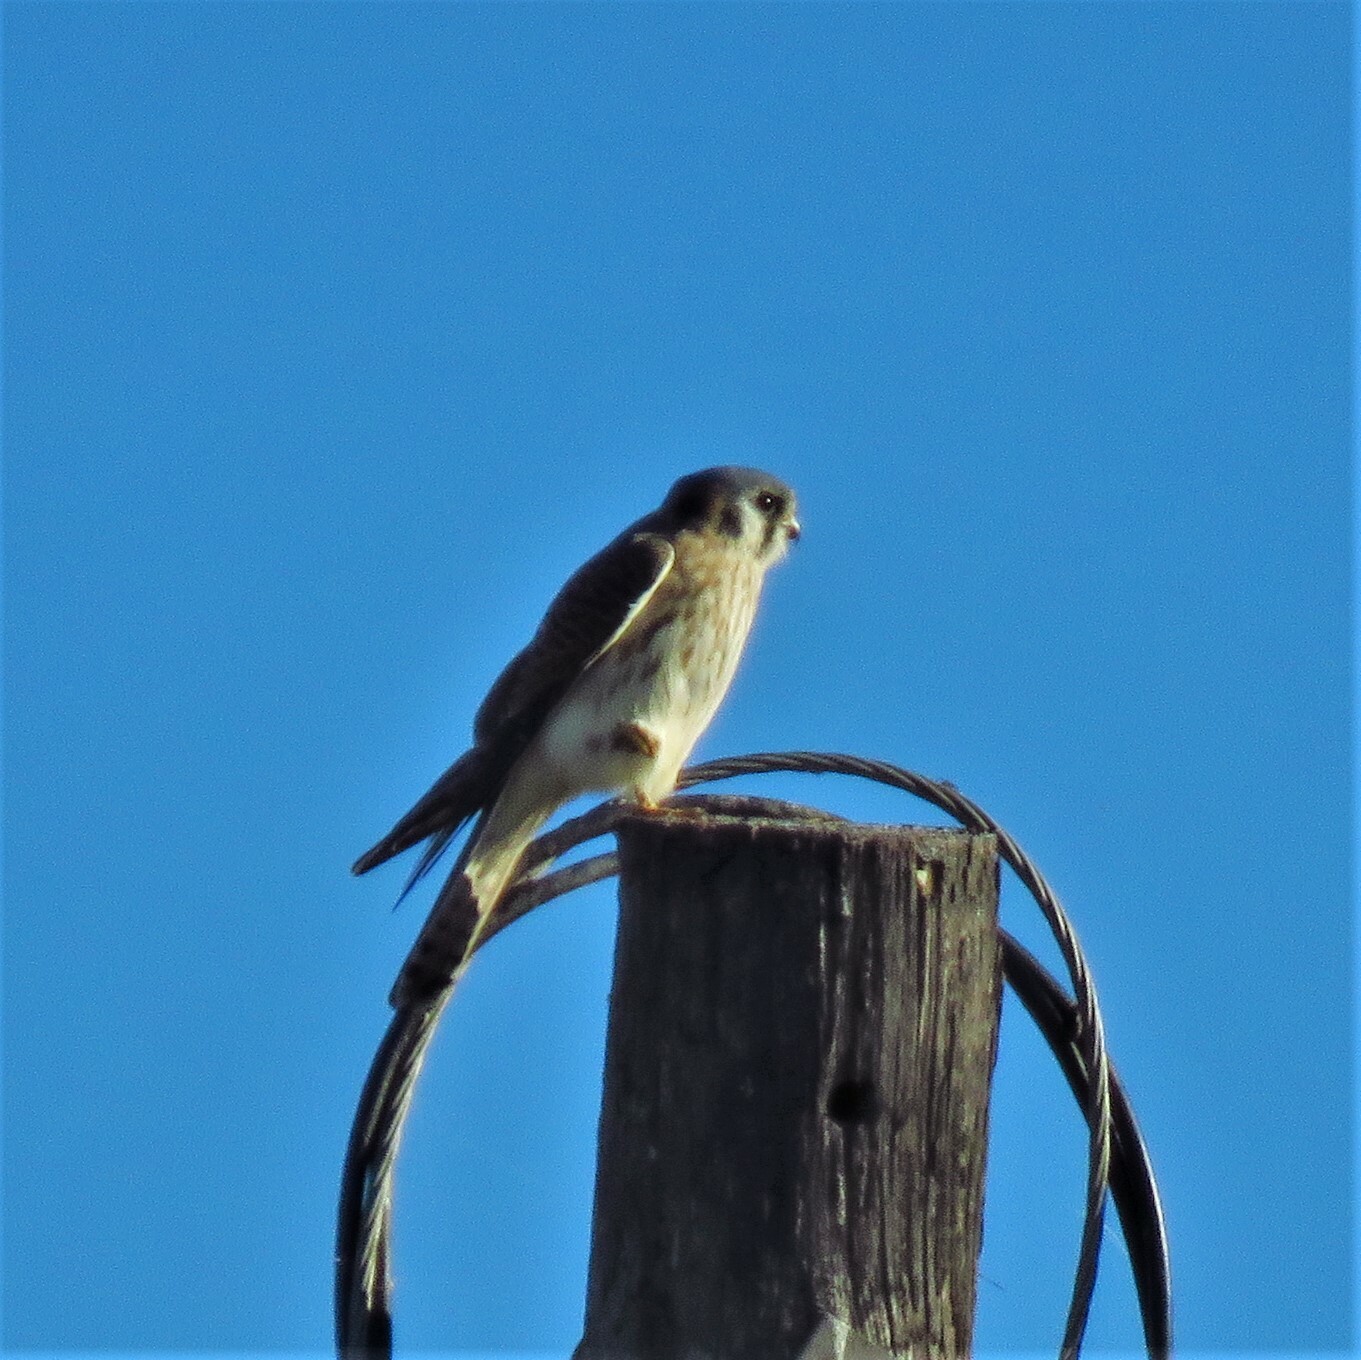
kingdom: Animalia
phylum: Chordata
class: Aves
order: Falconiformes
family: Falconidae
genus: Falco
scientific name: Falco sparverius
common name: American kestrel
